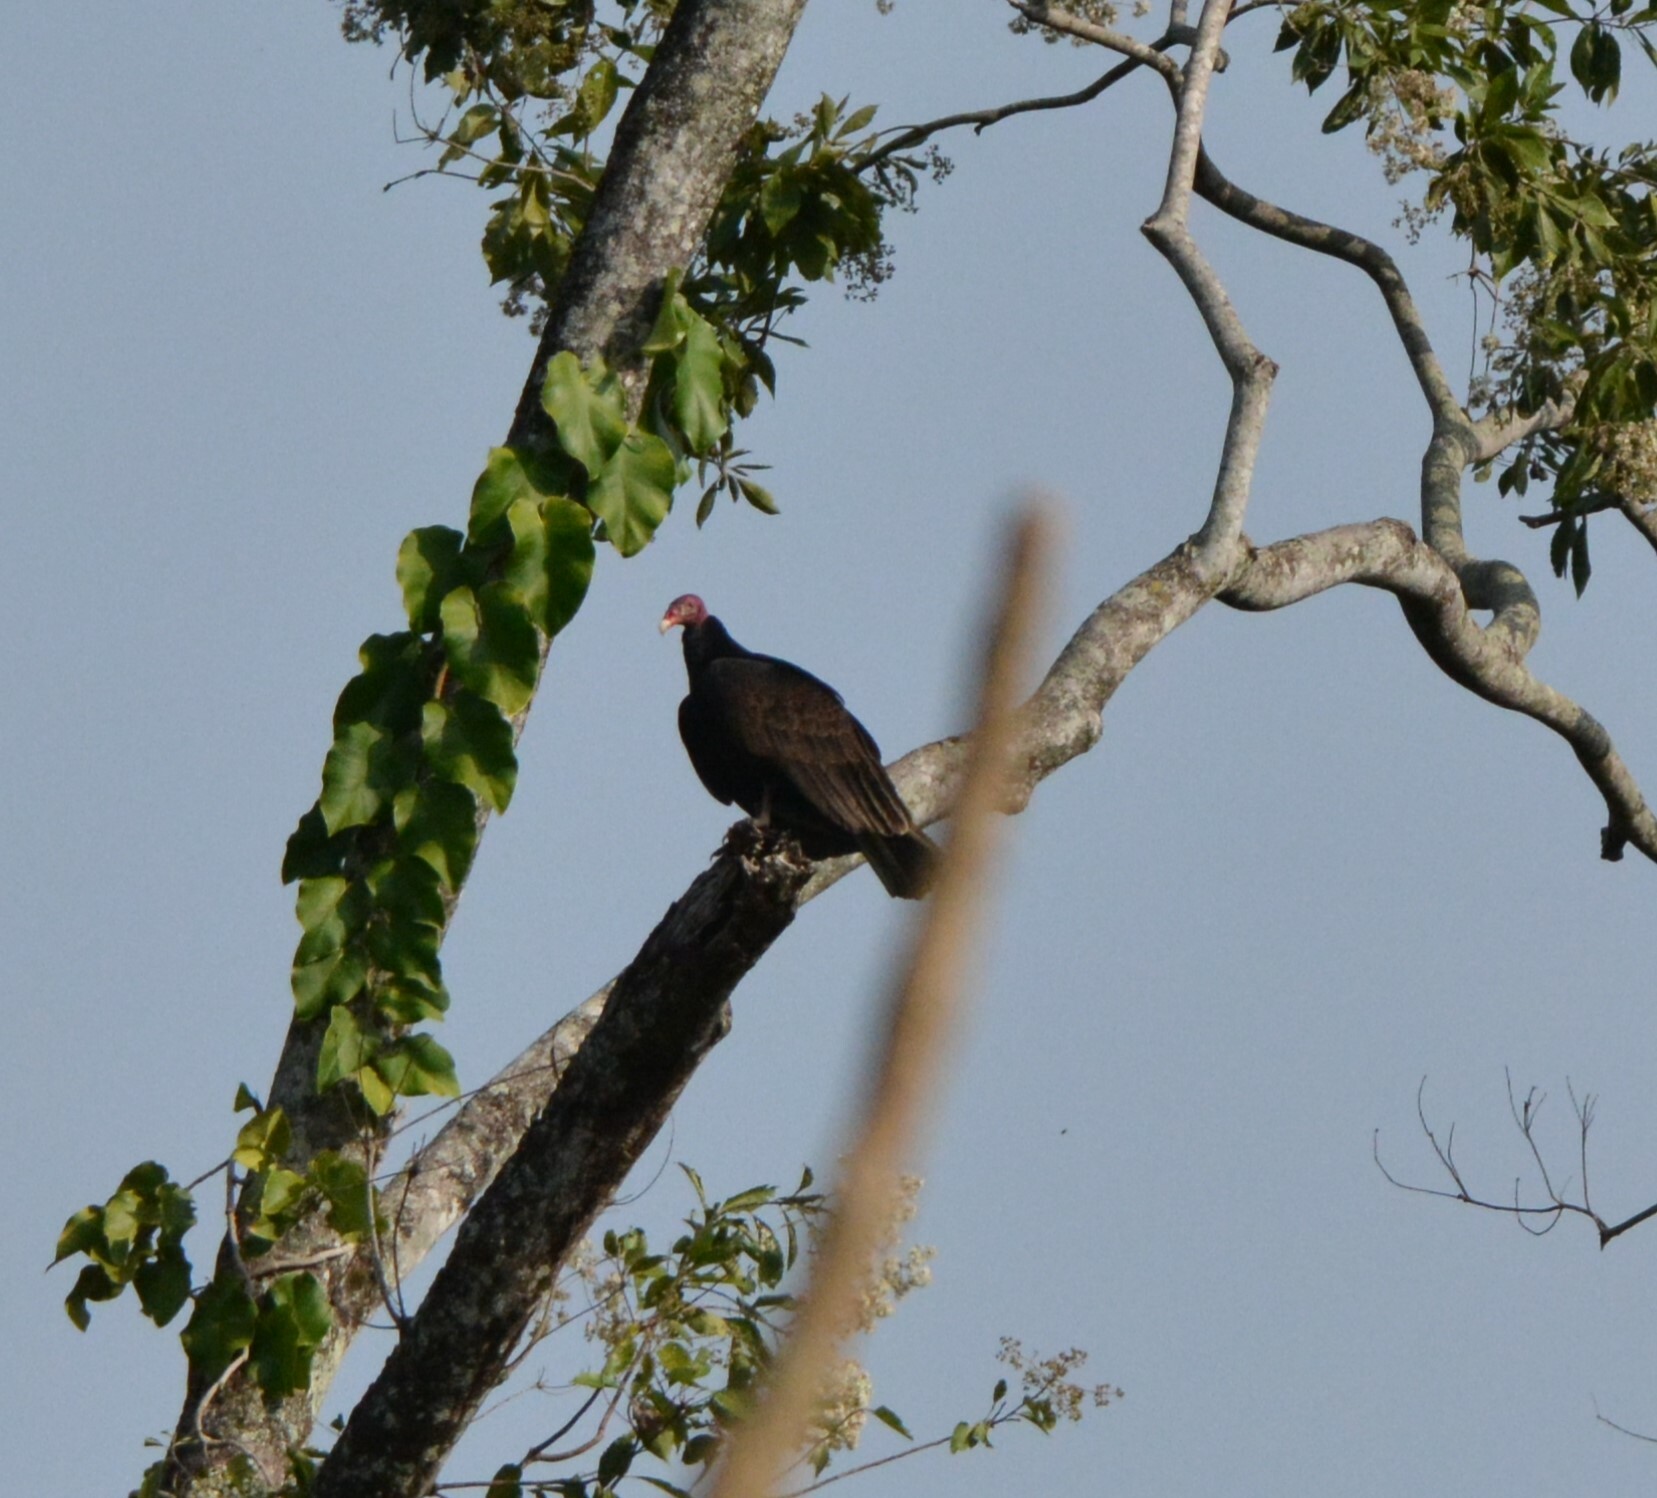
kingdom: Animalia
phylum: Chordata
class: Aves
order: Accipitriformes
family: Cathartidae
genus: Cathartes
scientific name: Cathartes aura
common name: Turkey vulture
